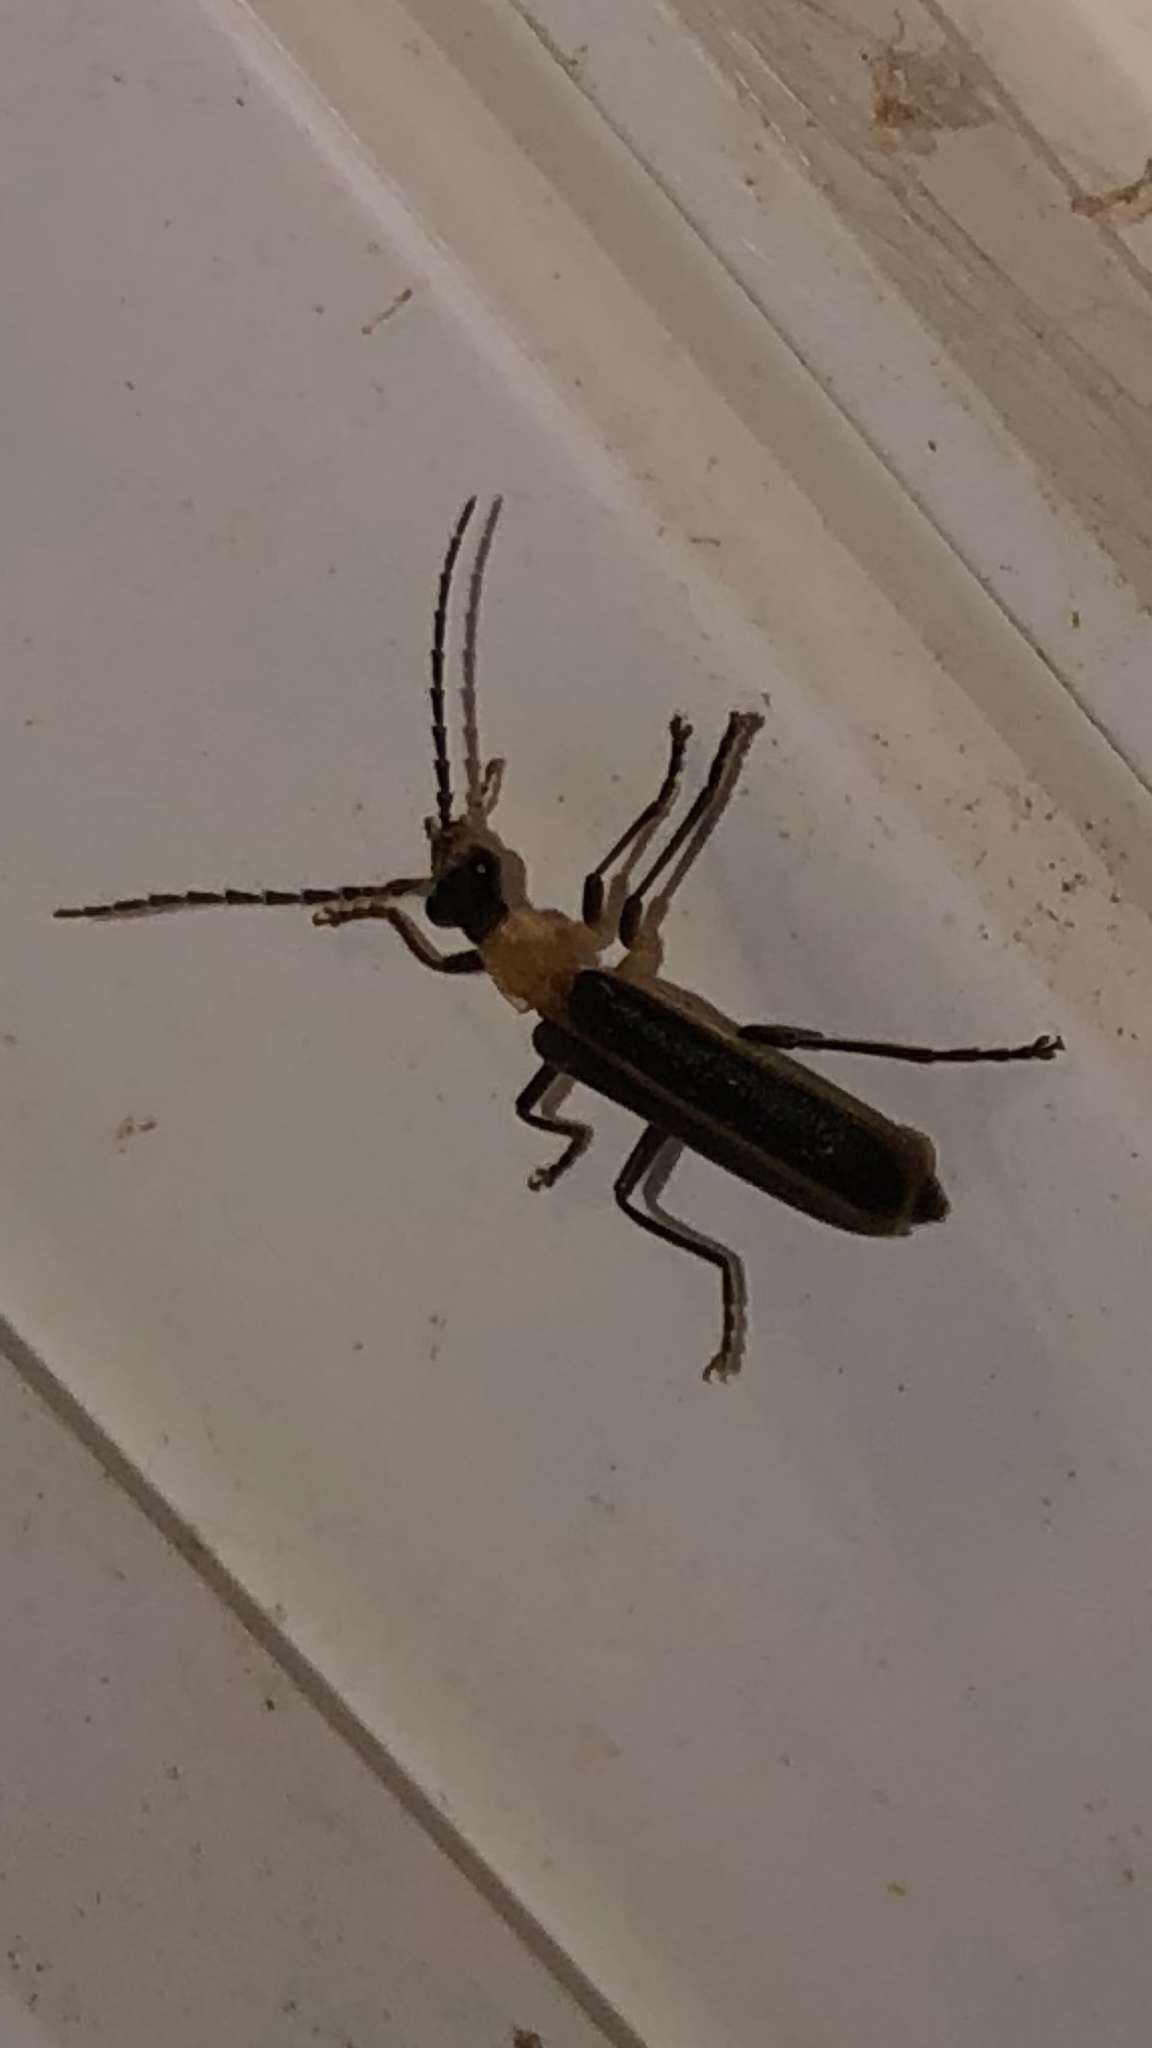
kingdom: Animalia
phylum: Arthropoda
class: Insecta
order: Coleoptera
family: Cantharidae
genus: Podabrus
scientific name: Podabrus flavicollis
